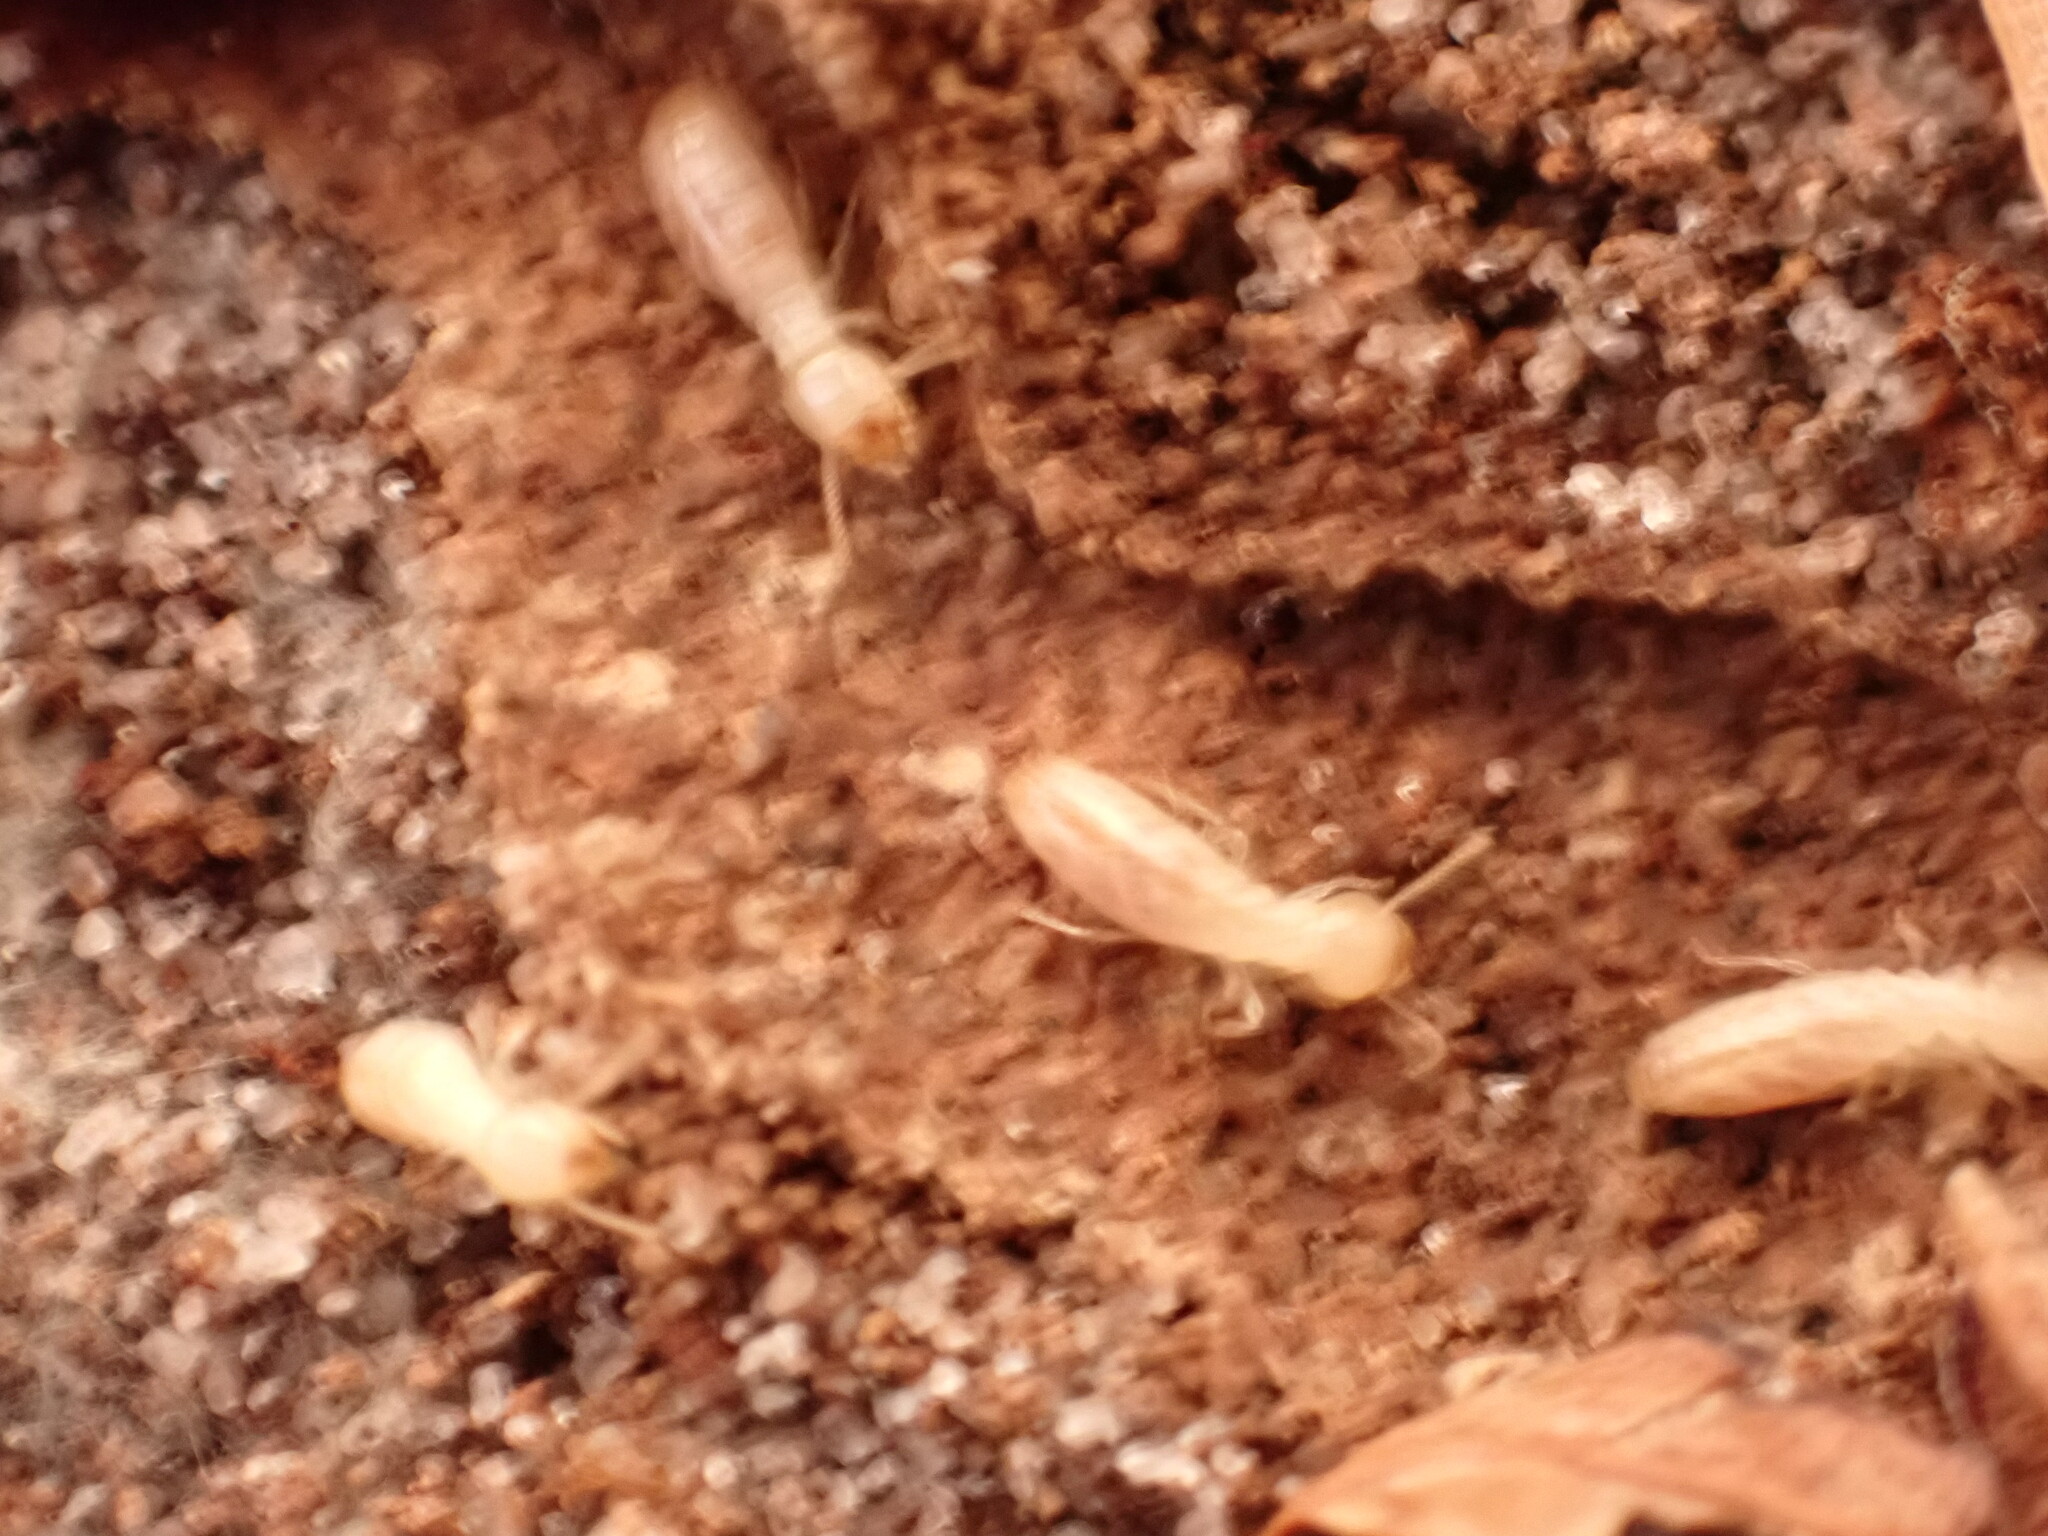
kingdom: Animalia
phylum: Arthropoda
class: Insecta
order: Blattodea
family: Rhinotermitidae
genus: Reticulitermes
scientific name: Reticulitermes flavipes
